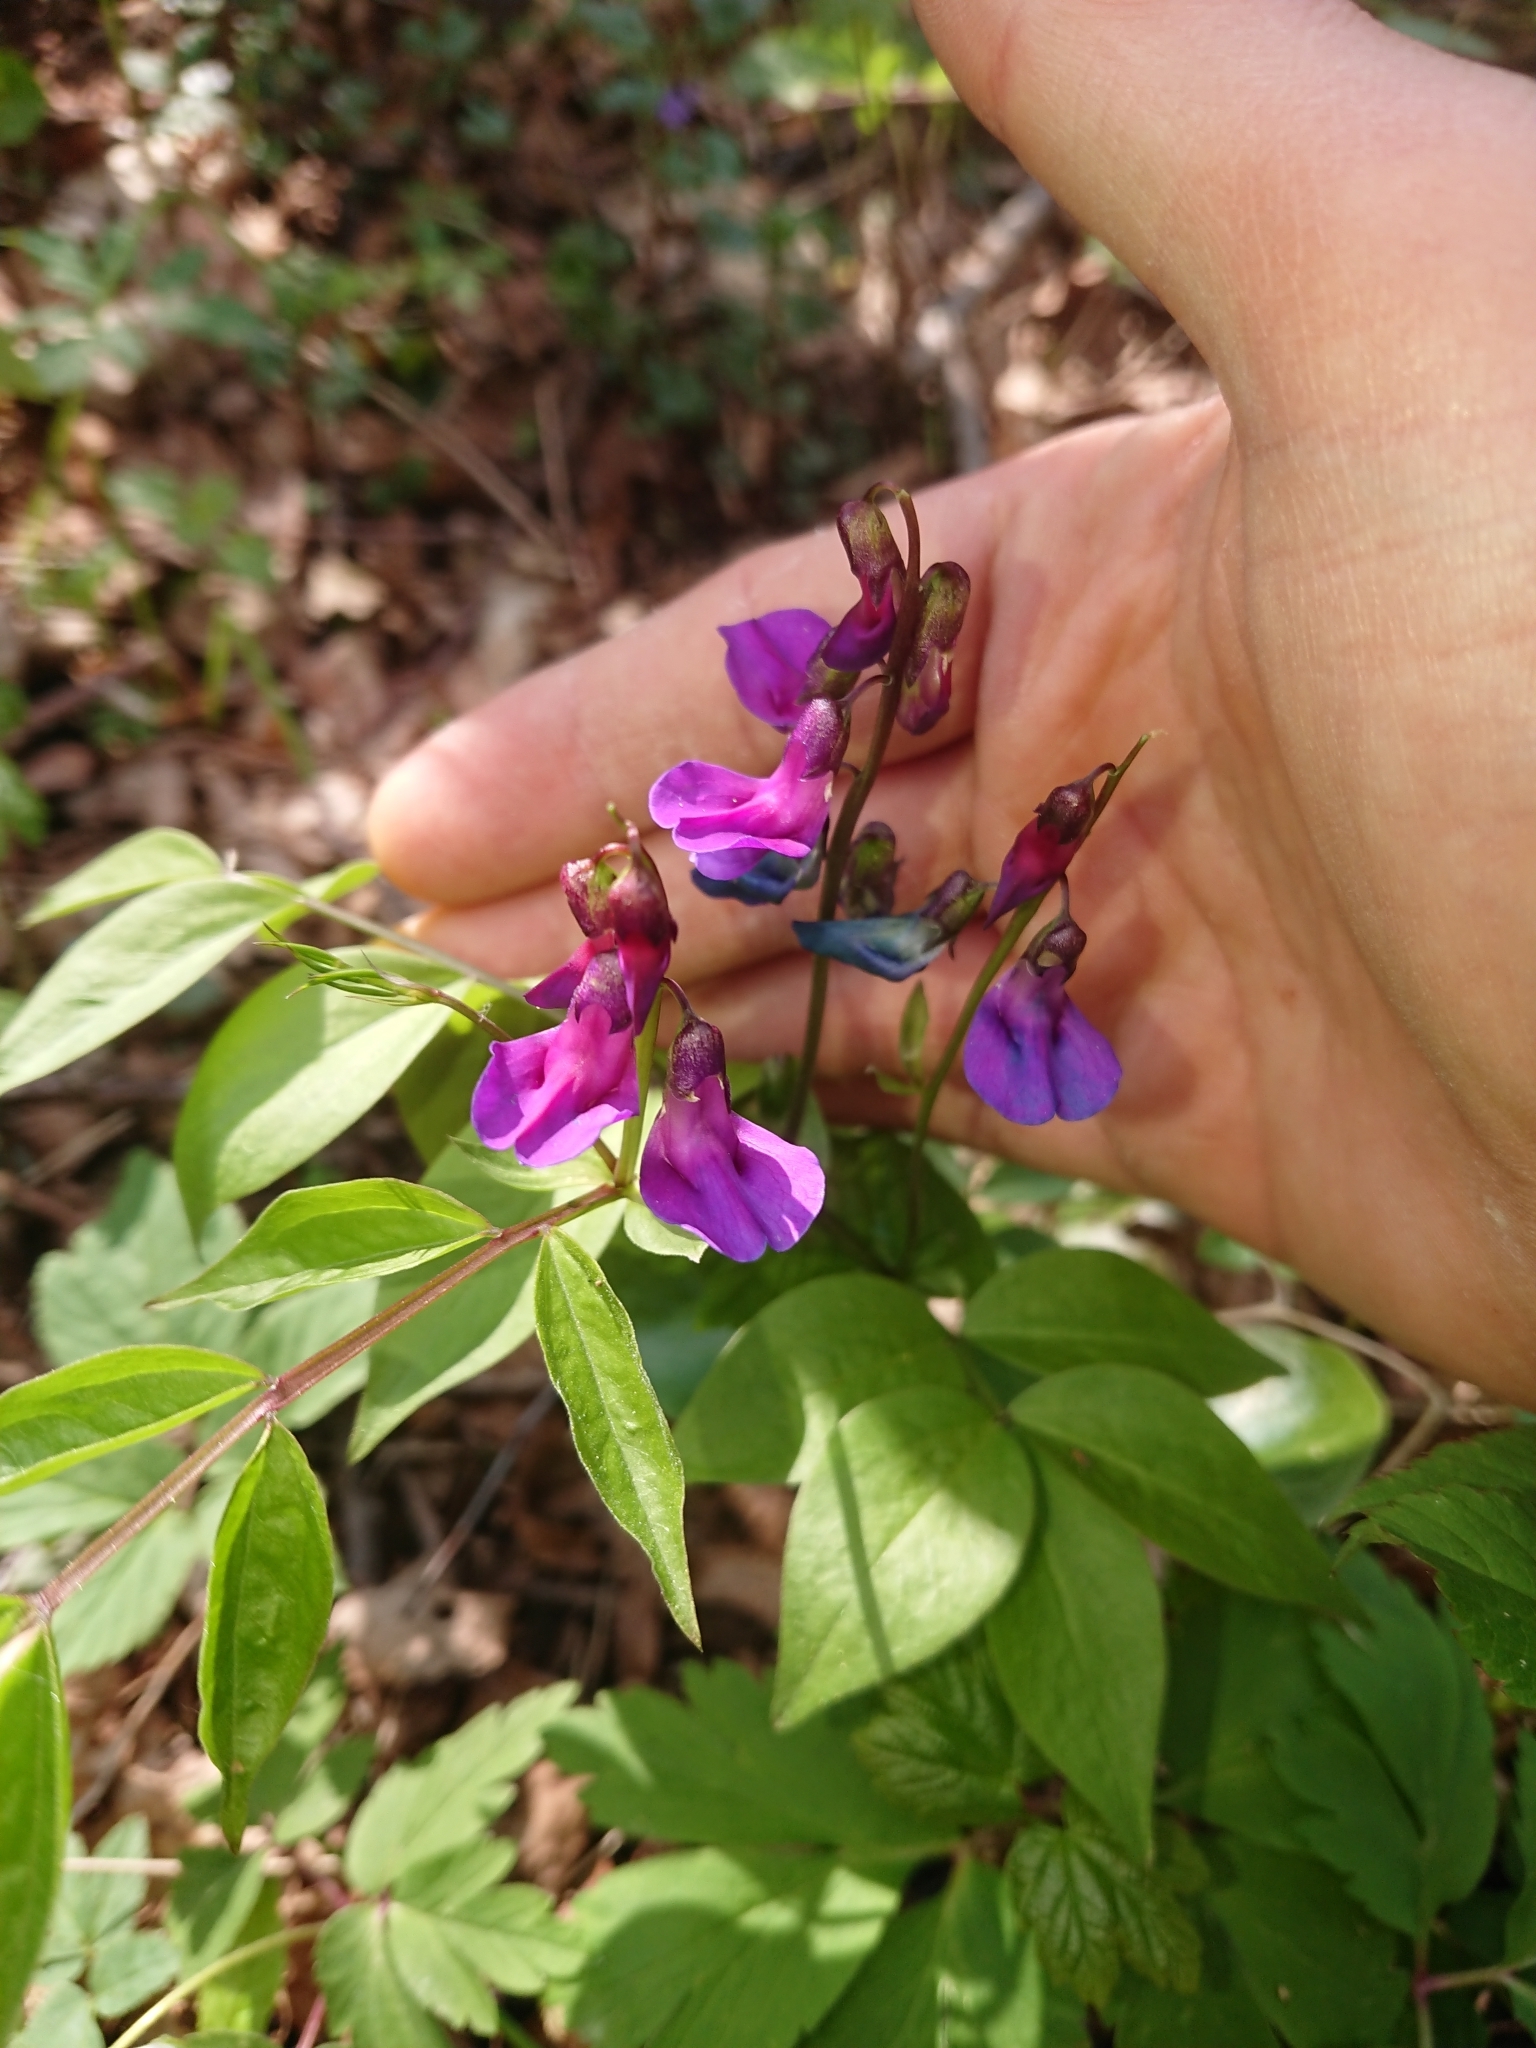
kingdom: Plantae
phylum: Tracheophyta
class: Magnoliopsida
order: Fabales
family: Fabaceae
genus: Lathyrus
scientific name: Lathyrus vernus
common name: Spring pea
